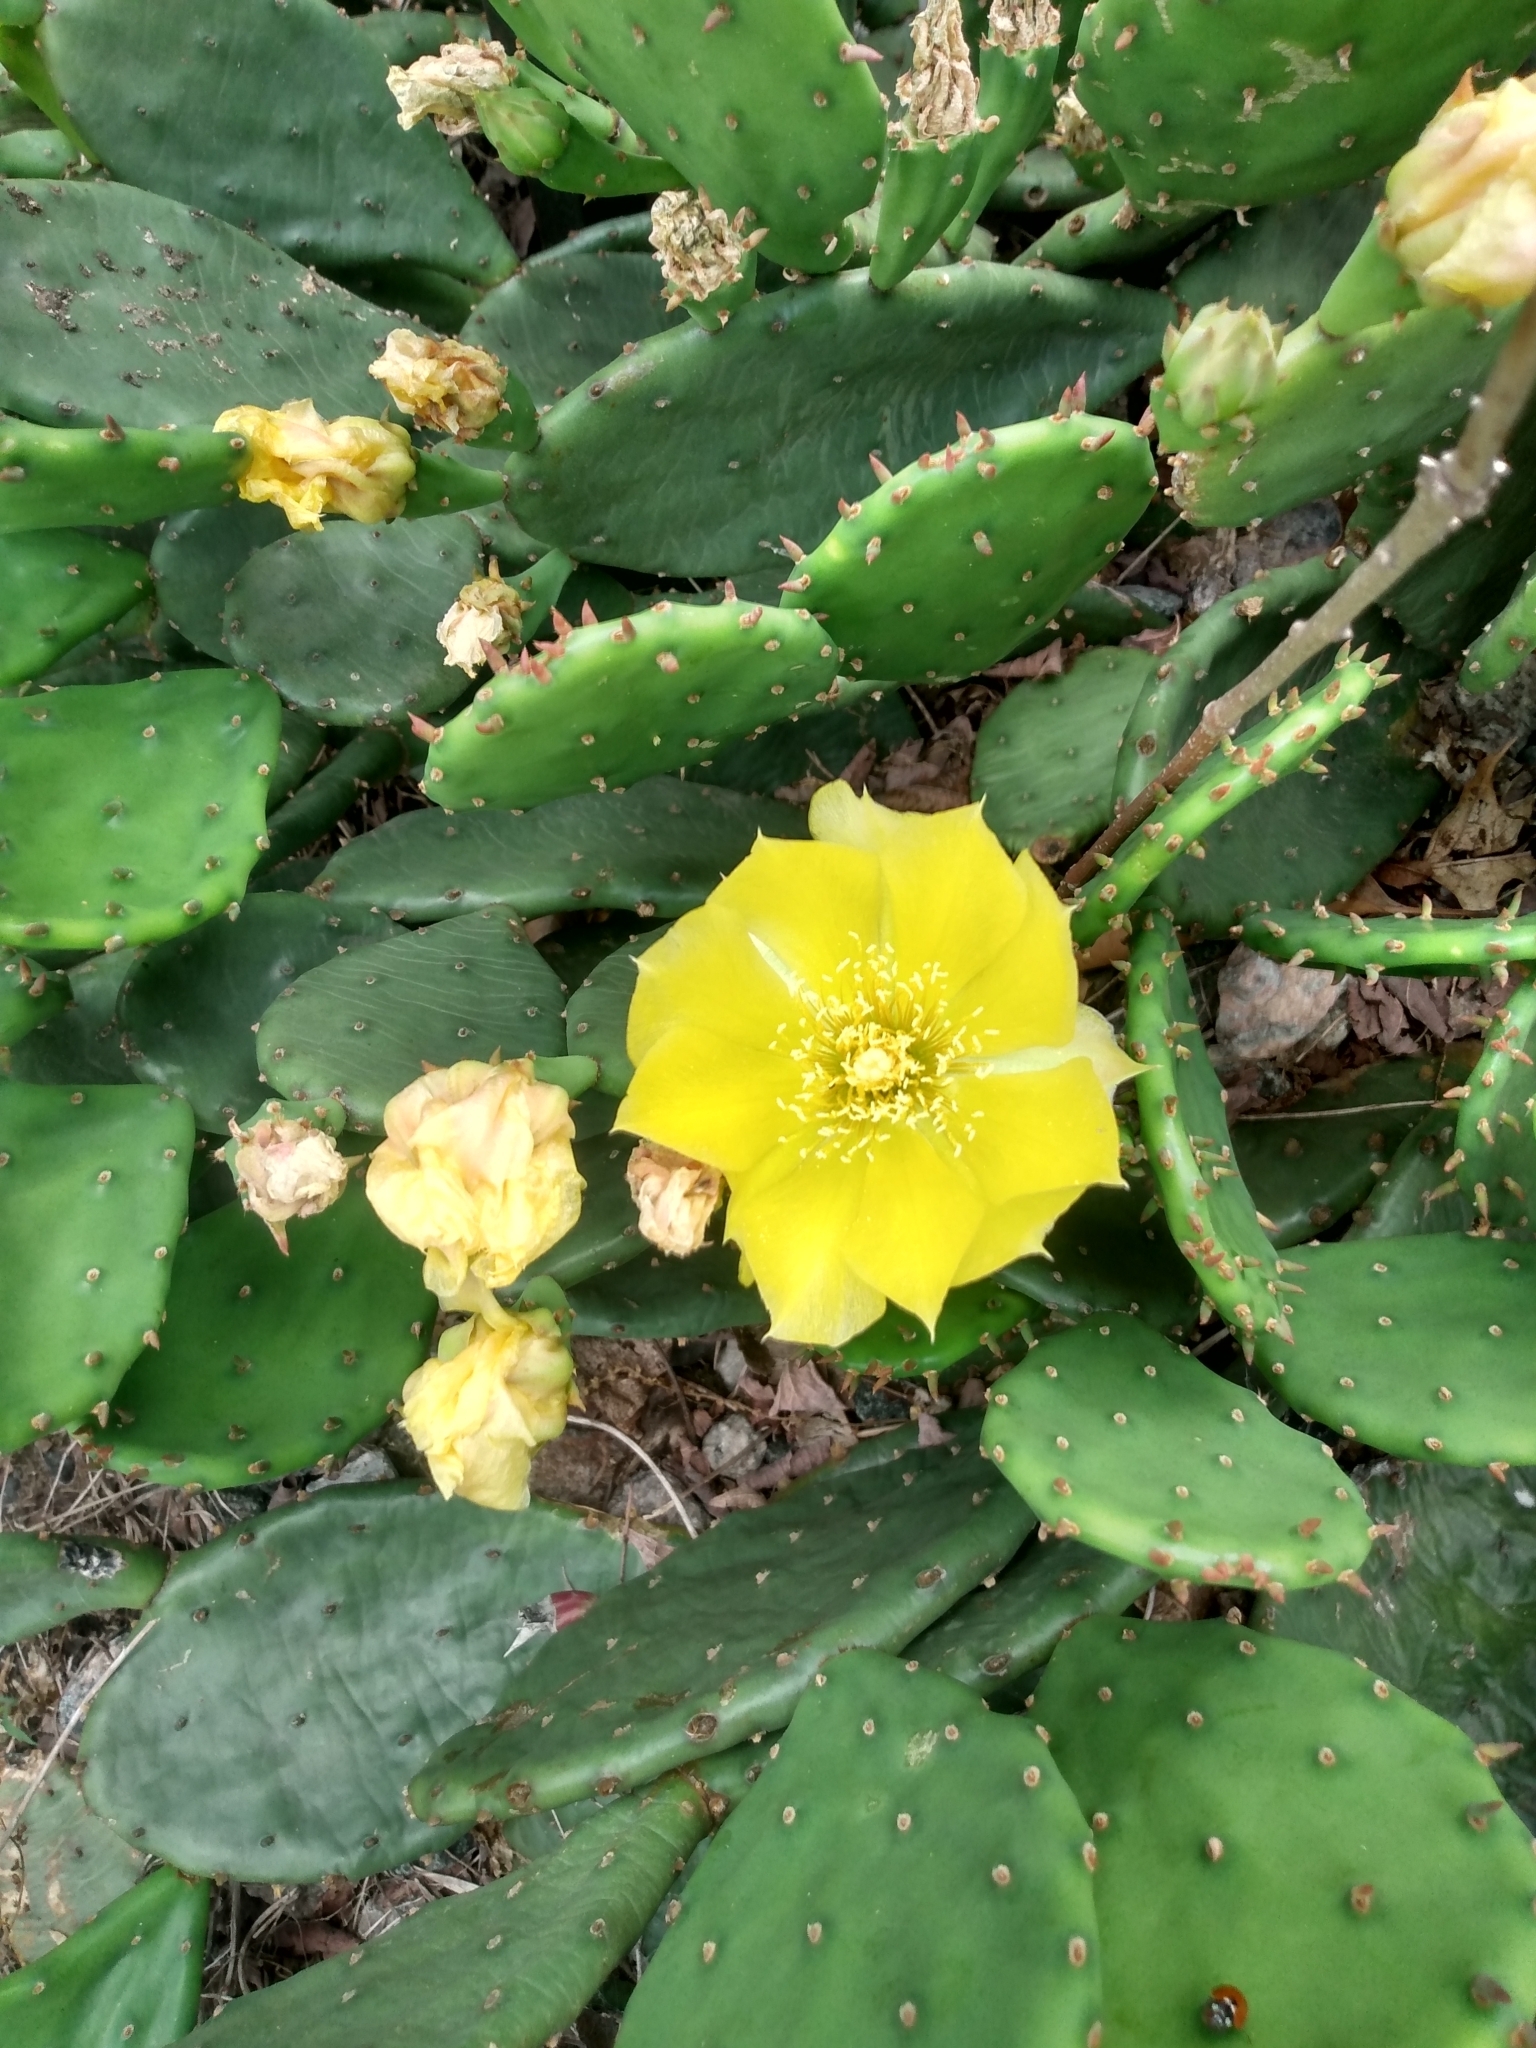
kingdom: Plantae
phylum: Tracheophyta
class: Magnoliopsida
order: Caryophyllales
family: Cactaceae
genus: Opuntia
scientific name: Opuntia humifusa
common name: Eastern prickly-pear
